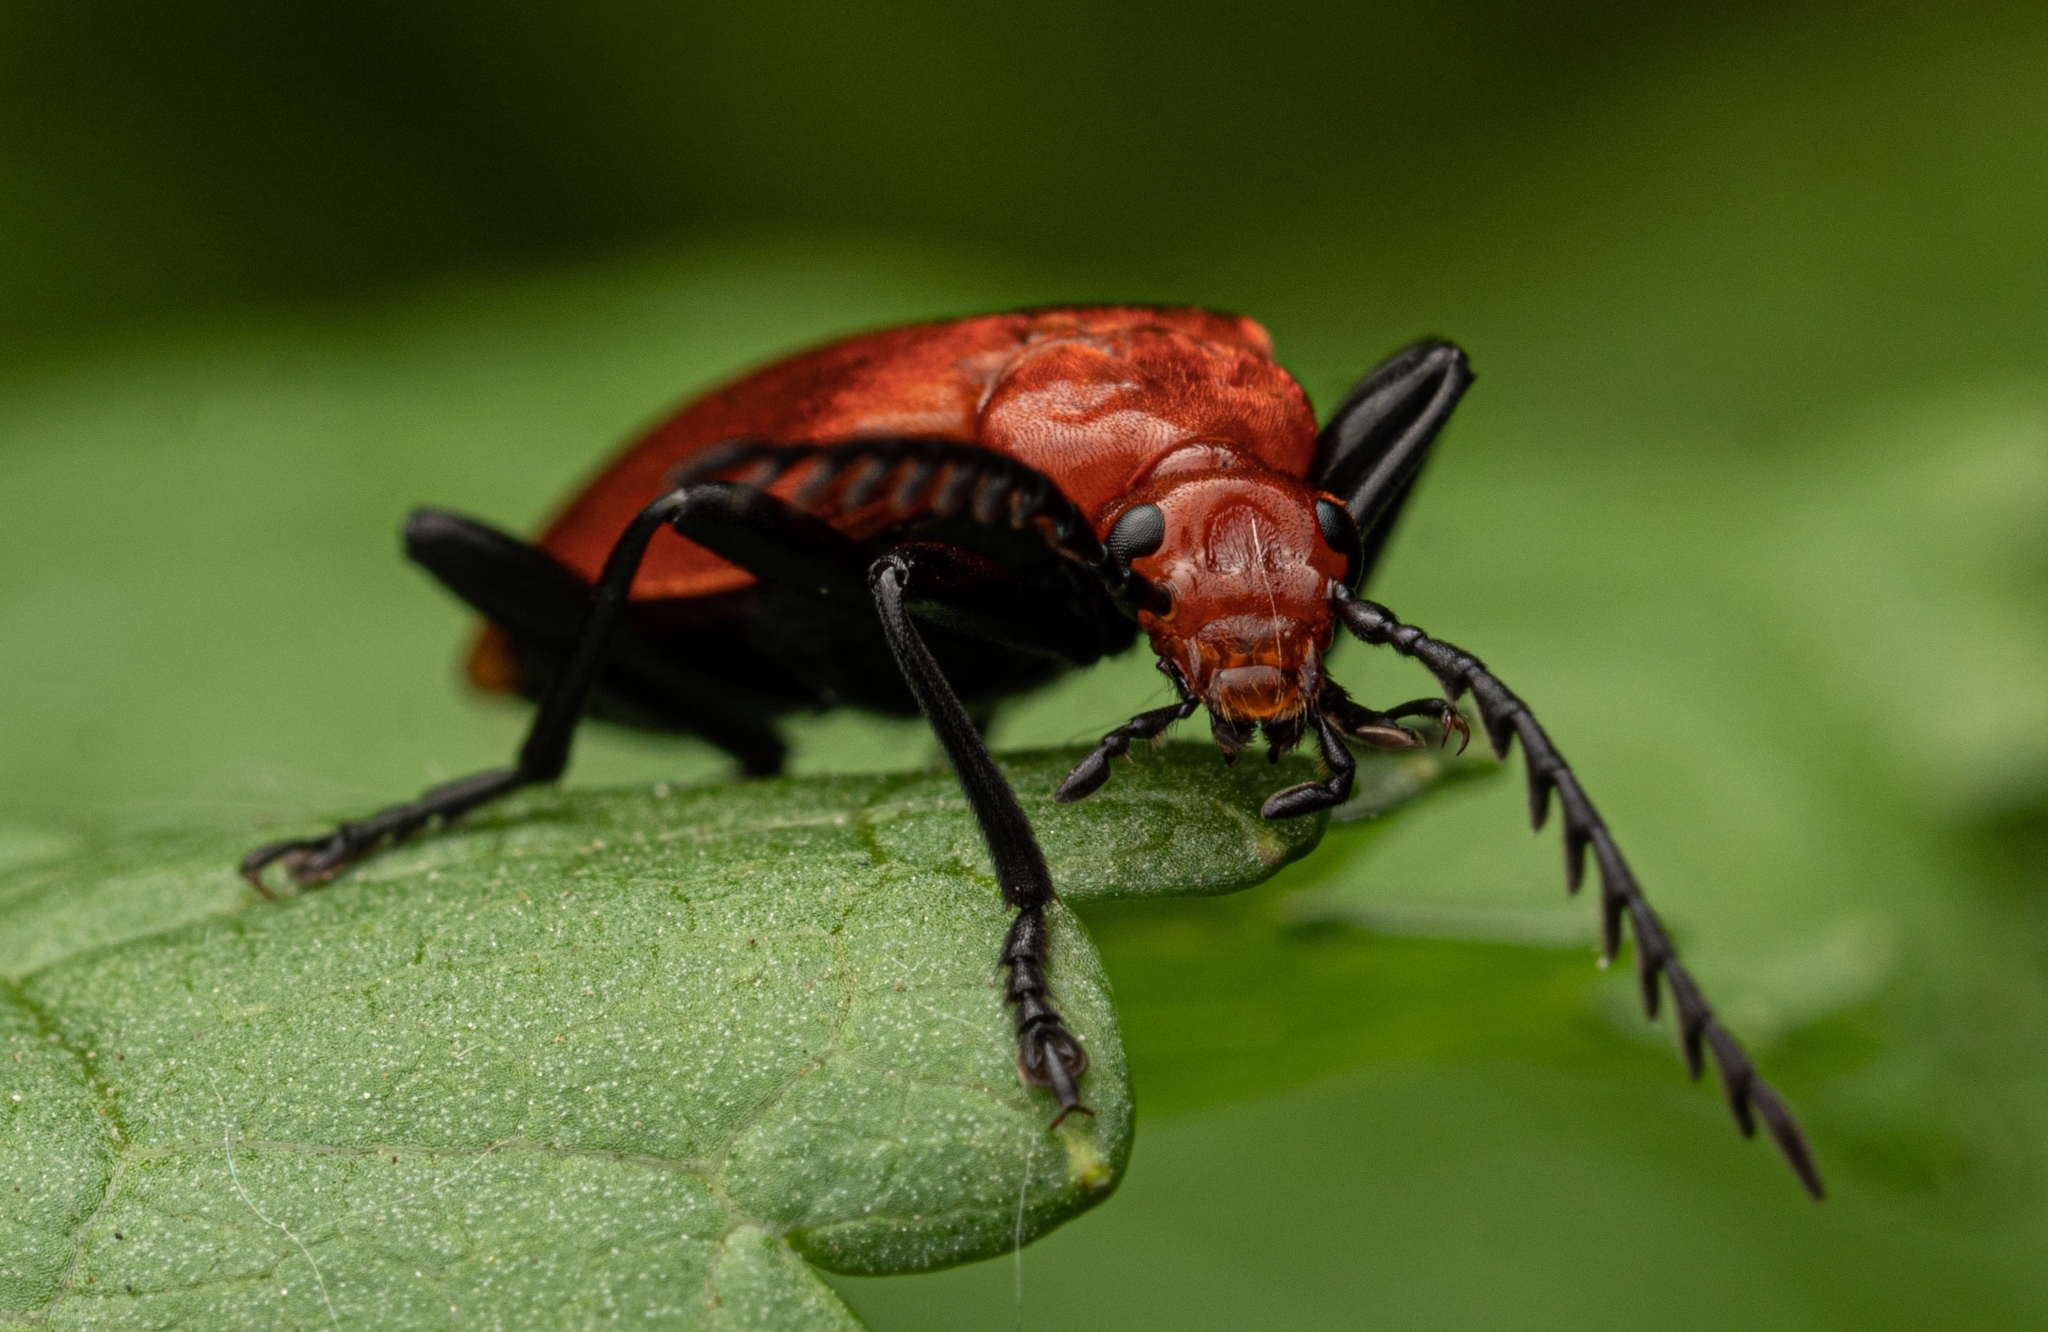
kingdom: Animalia
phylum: Arthropoda
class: Insecta
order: Coleoptera
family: Pyrochroidae
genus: Pyrochroa
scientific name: Pyrochroa serraticornis
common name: Red-headed cardinal beetle
